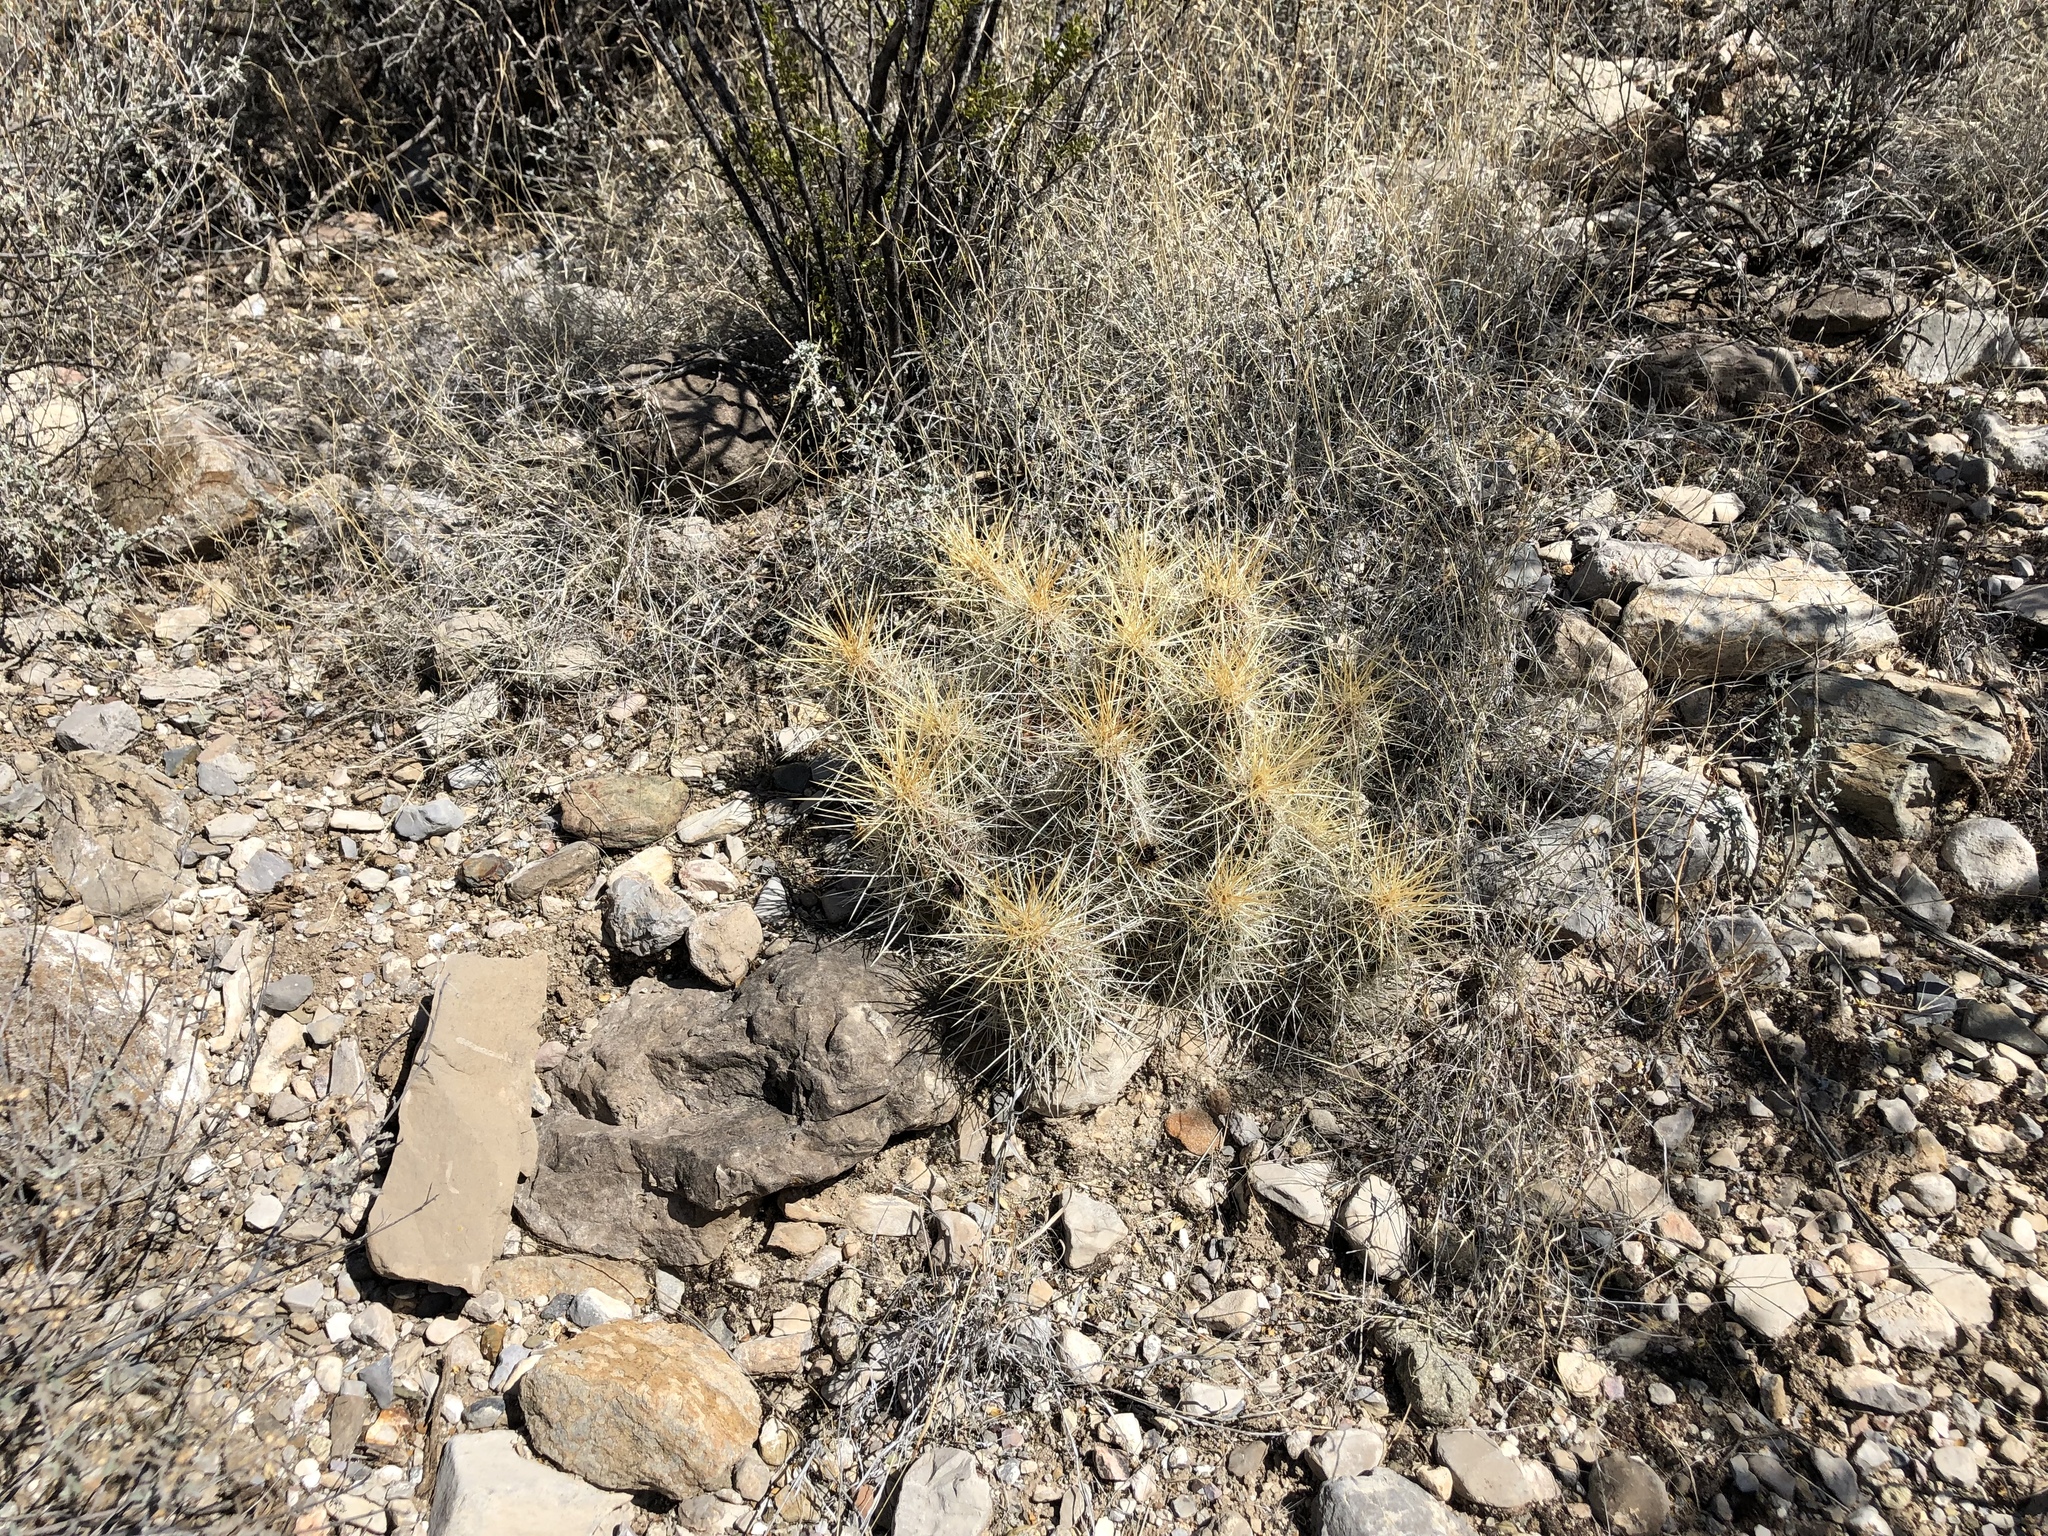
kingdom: Plantae
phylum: Tracheophyta
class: Magnoliopsida
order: Caryophyllales
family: Cactaceae
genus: Echinocereus
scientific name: Echinocereus stramineus
